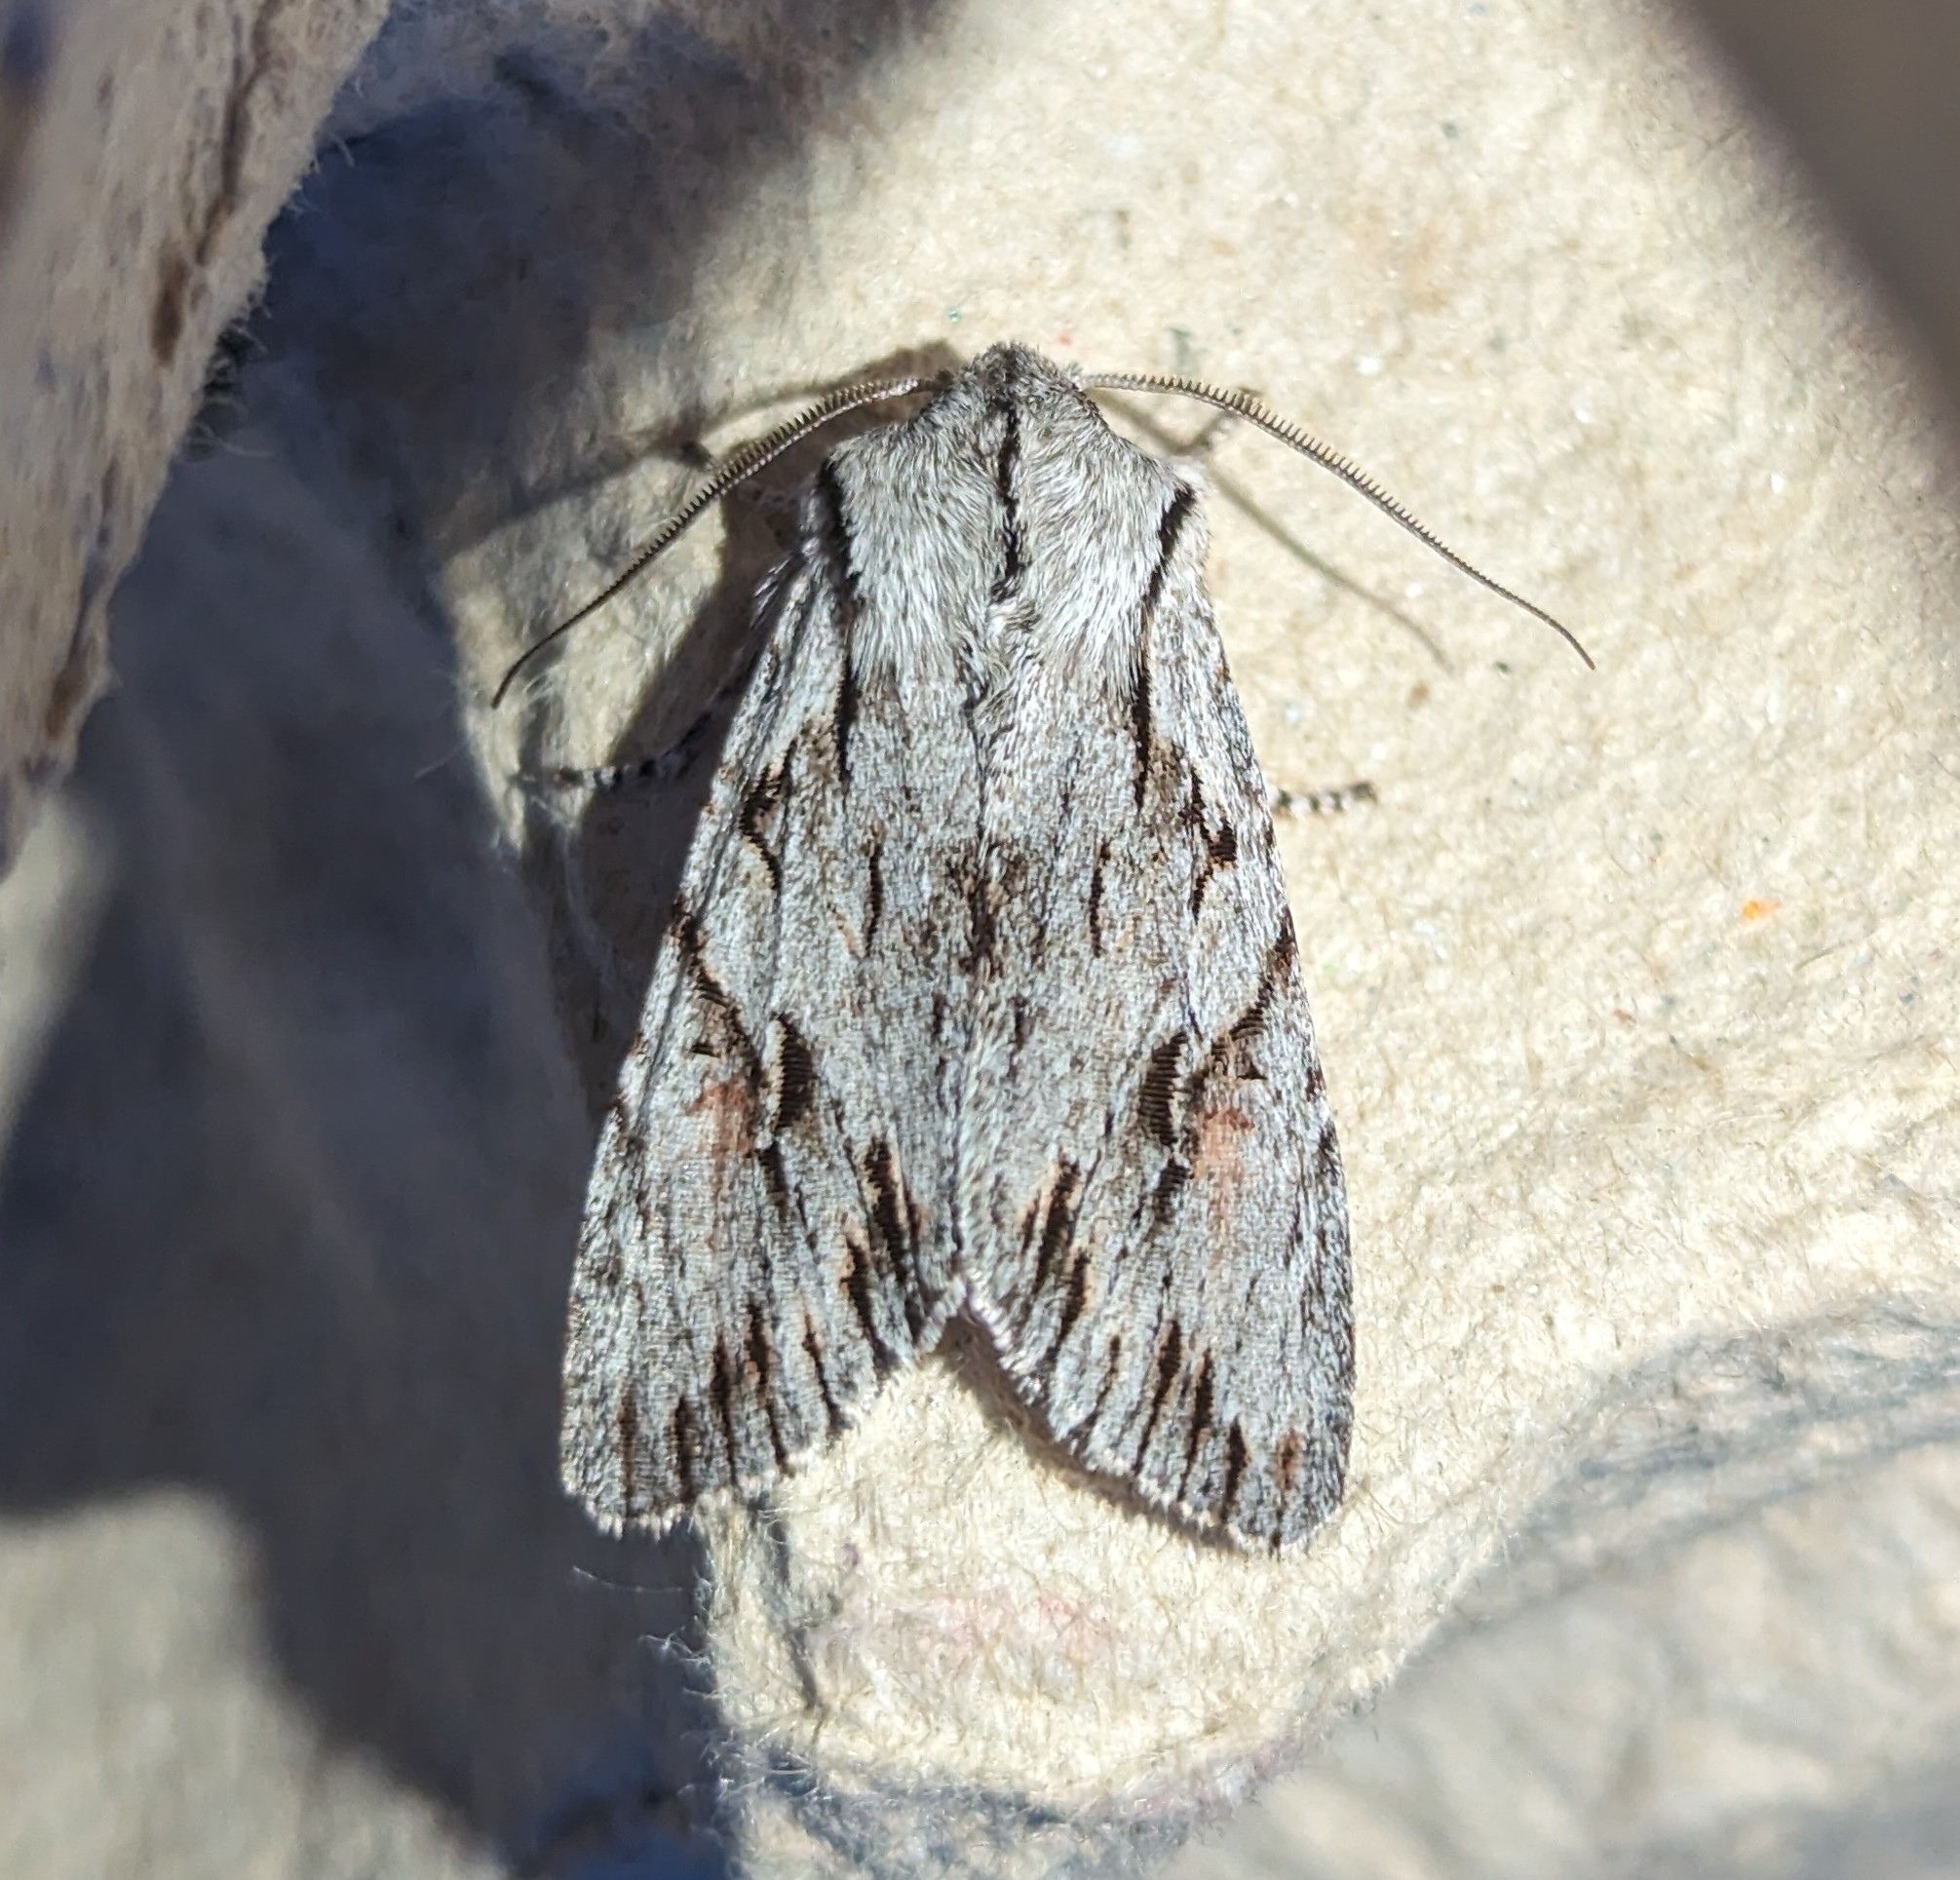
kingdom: Animalia
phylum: Arthropoda
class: Insecta
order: Lepidoptera
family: Noctuidae
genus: Egira
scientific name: Egira crucialis
